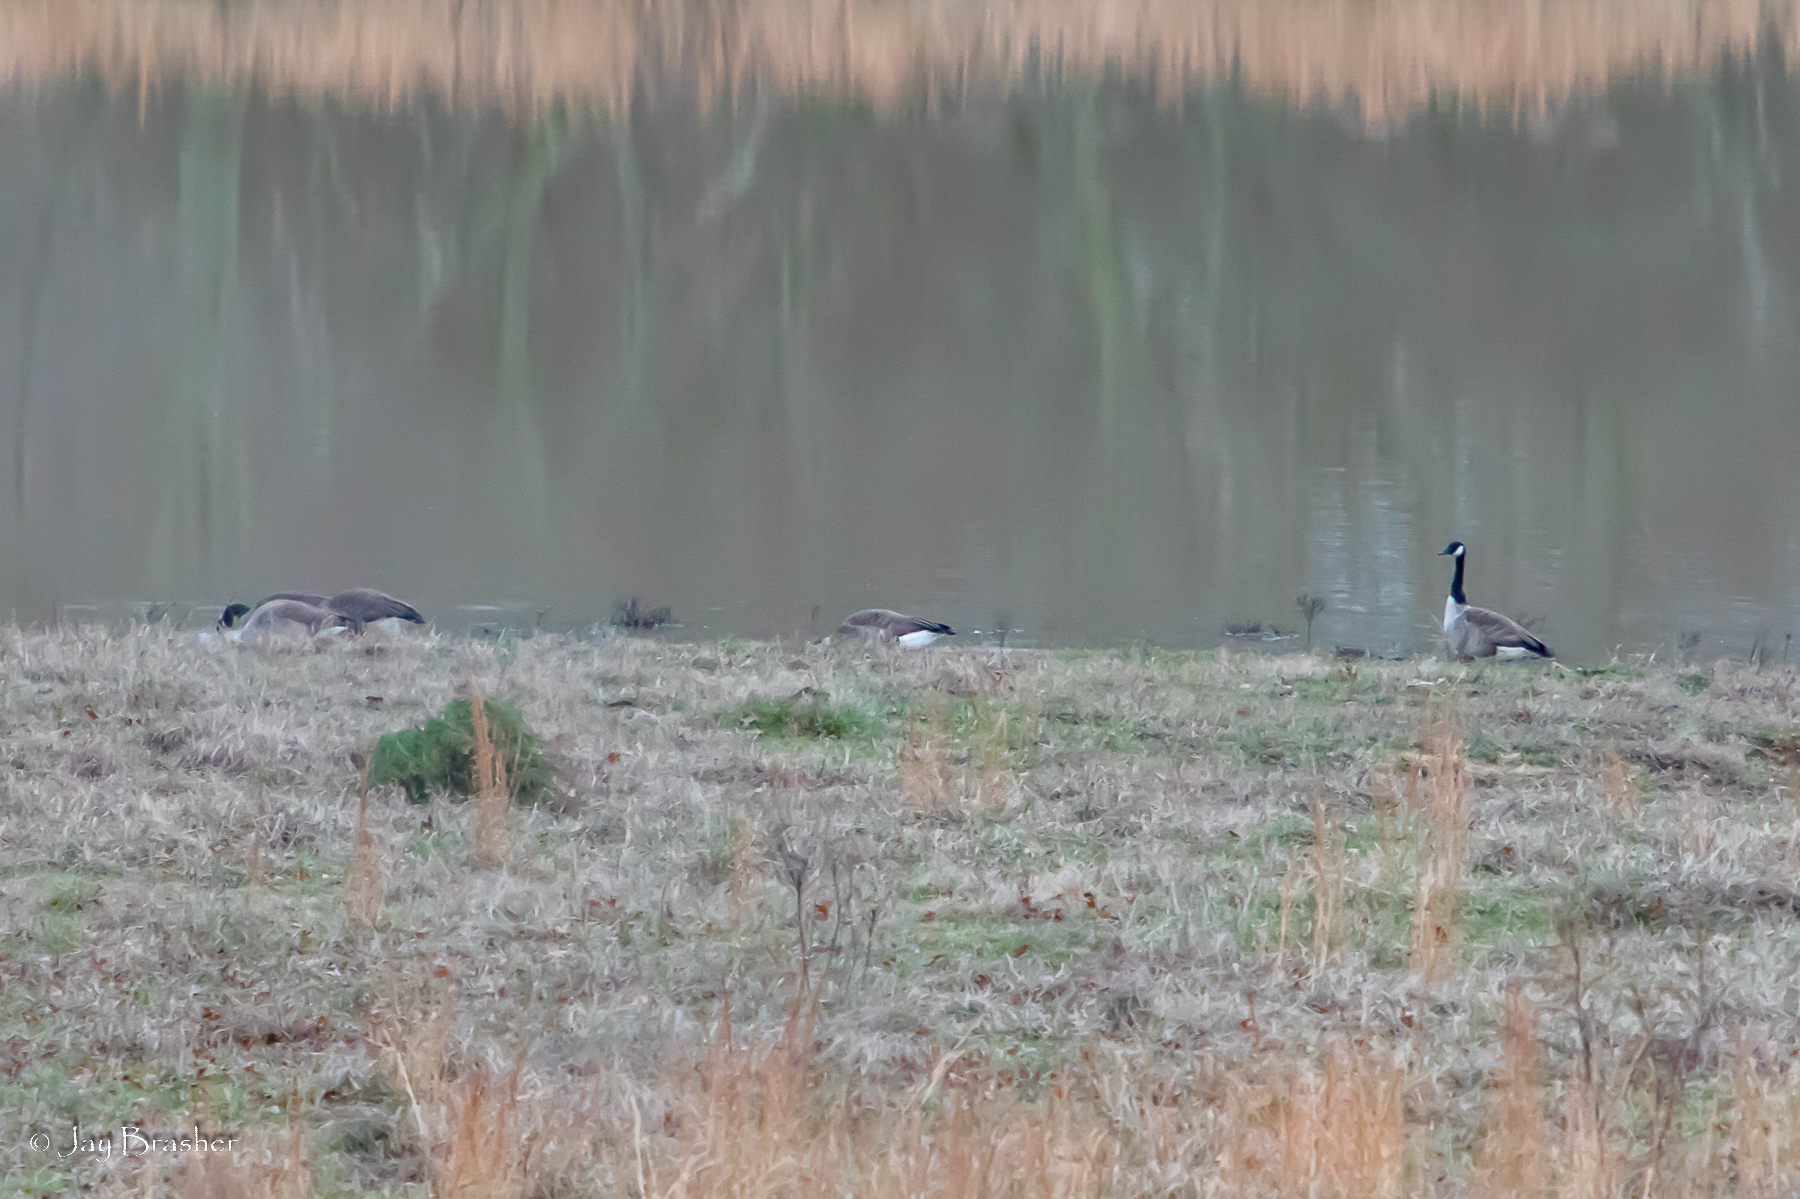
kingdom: Animalia
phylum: Chordata
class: Aves
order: Anseriformes
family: Anatidae
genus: Branta
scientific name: Branta canadensis
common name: Canada goose
